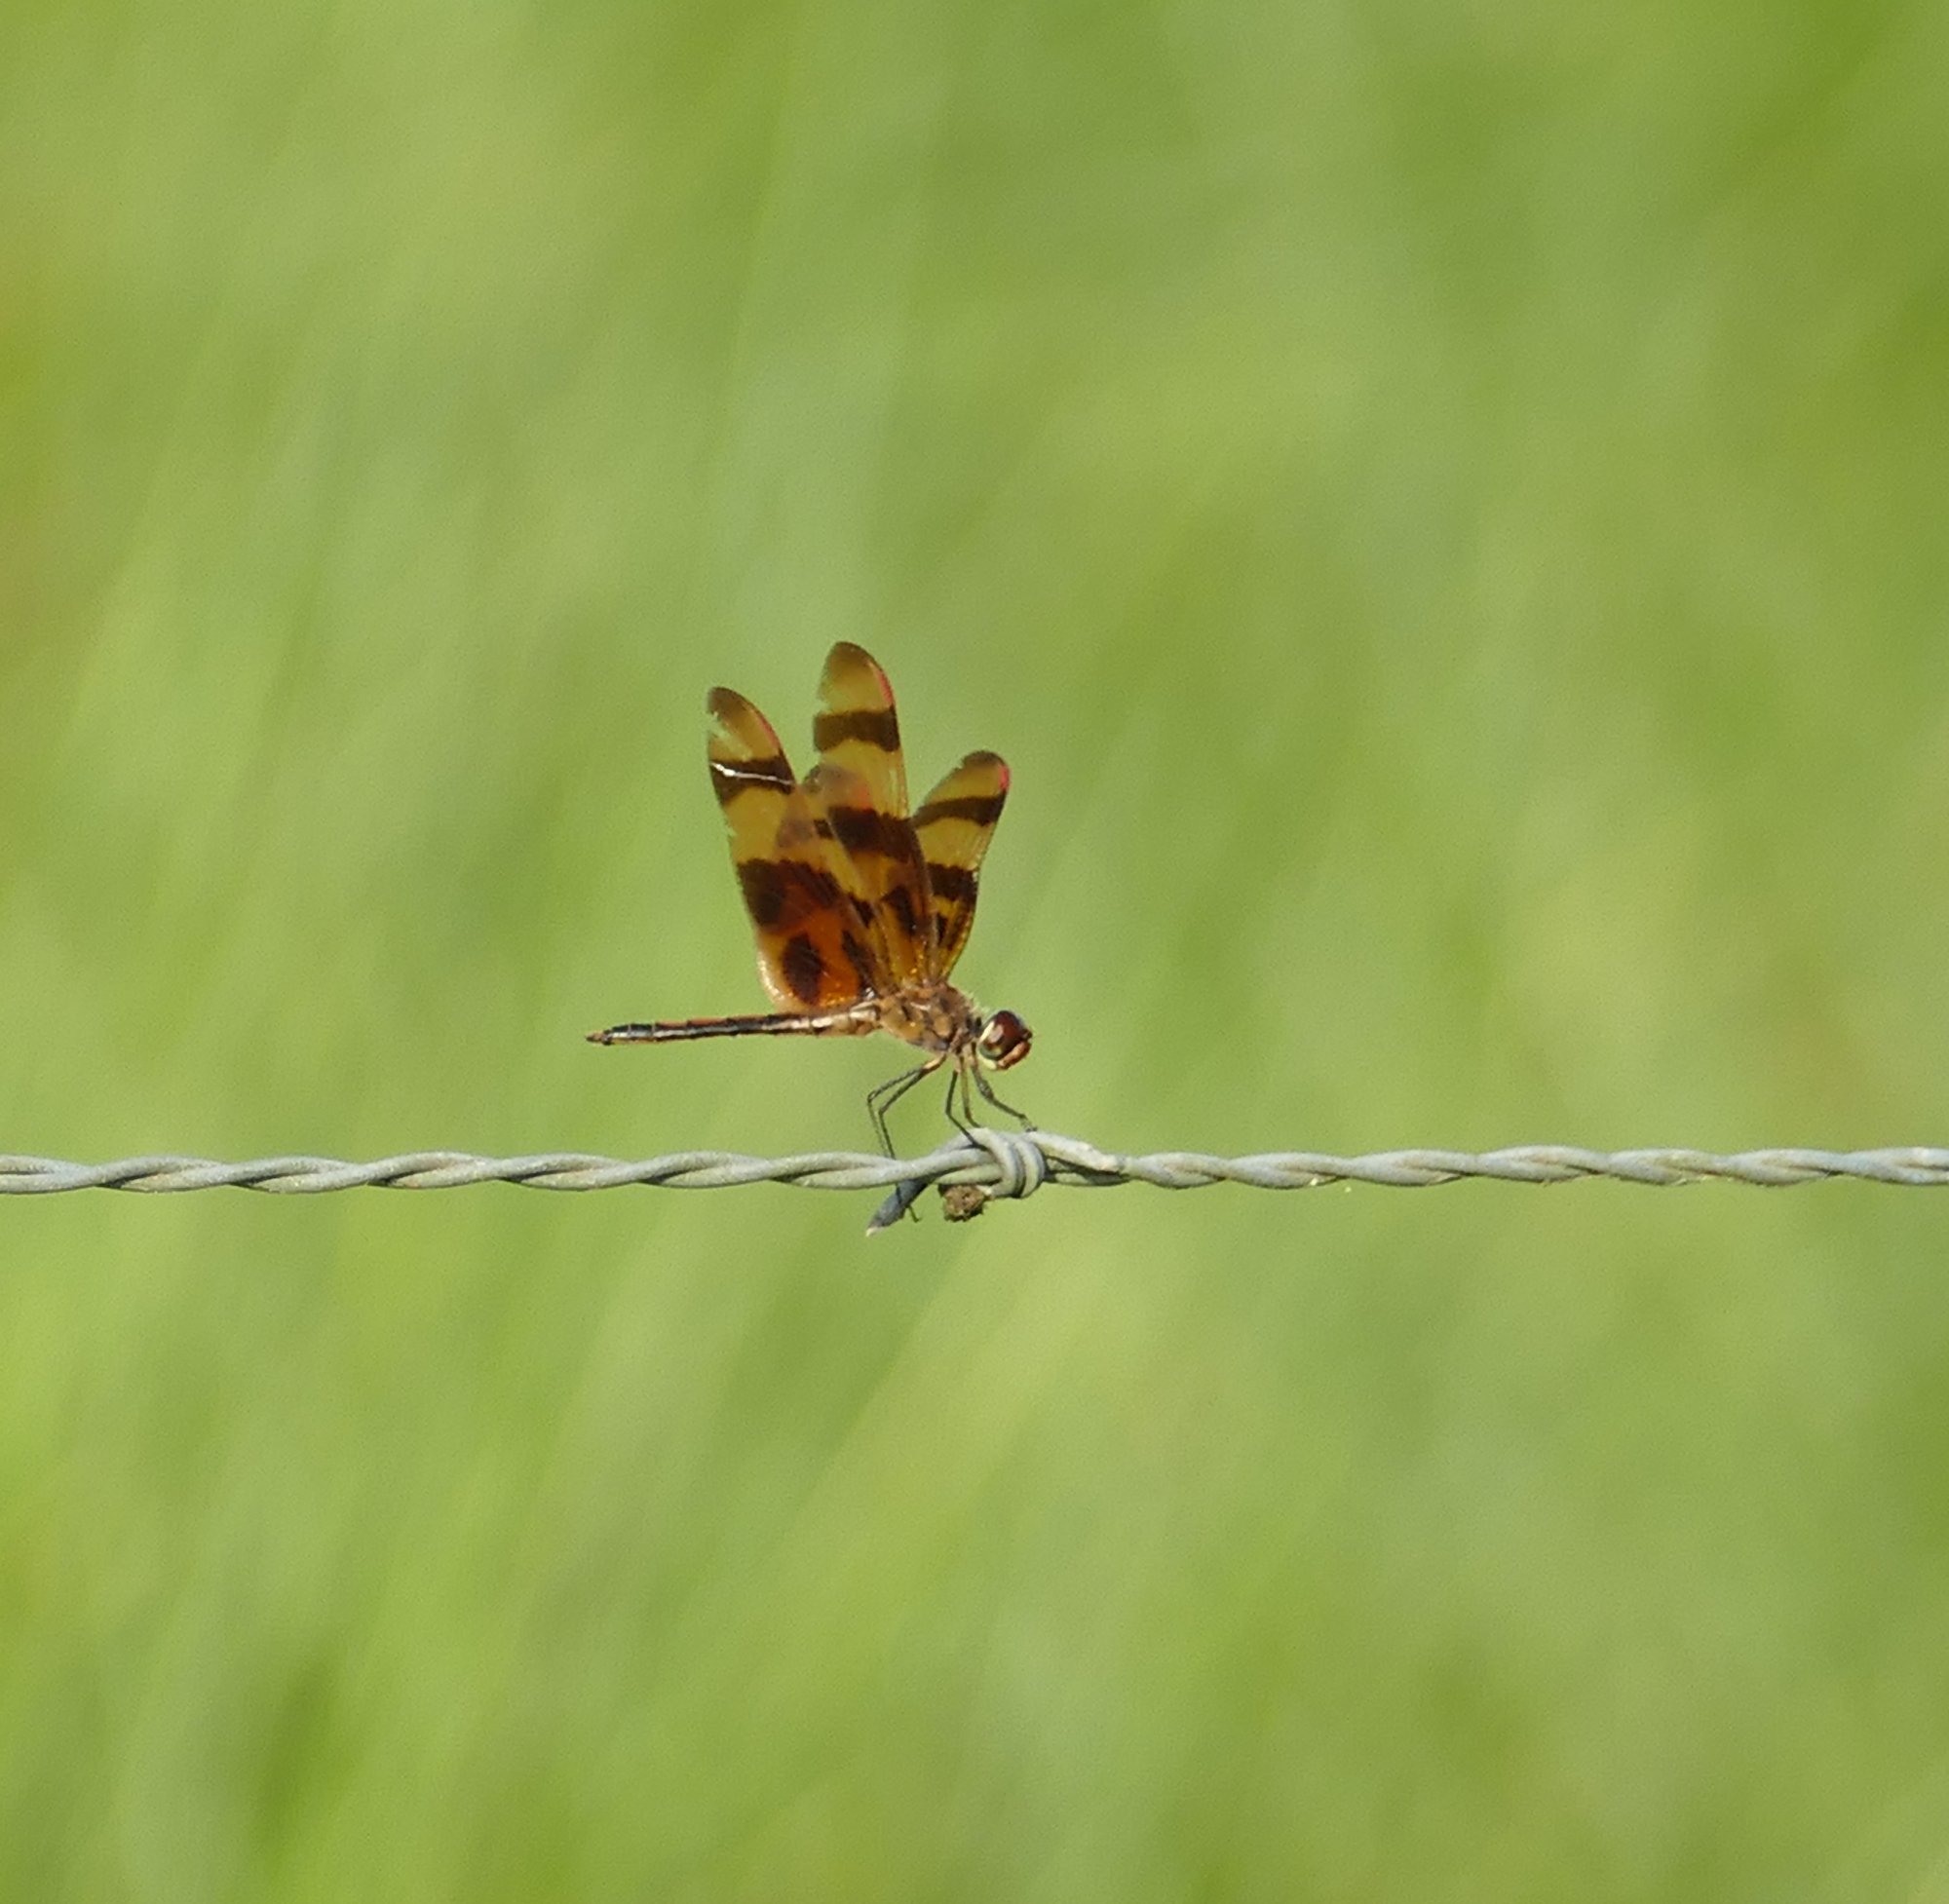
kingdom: Animalia
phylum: Arthropoda
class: Insecta
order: Odonata
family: Libellulidae
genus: Celithemis
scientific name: Celithemis eponina
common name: Halloween pennant
